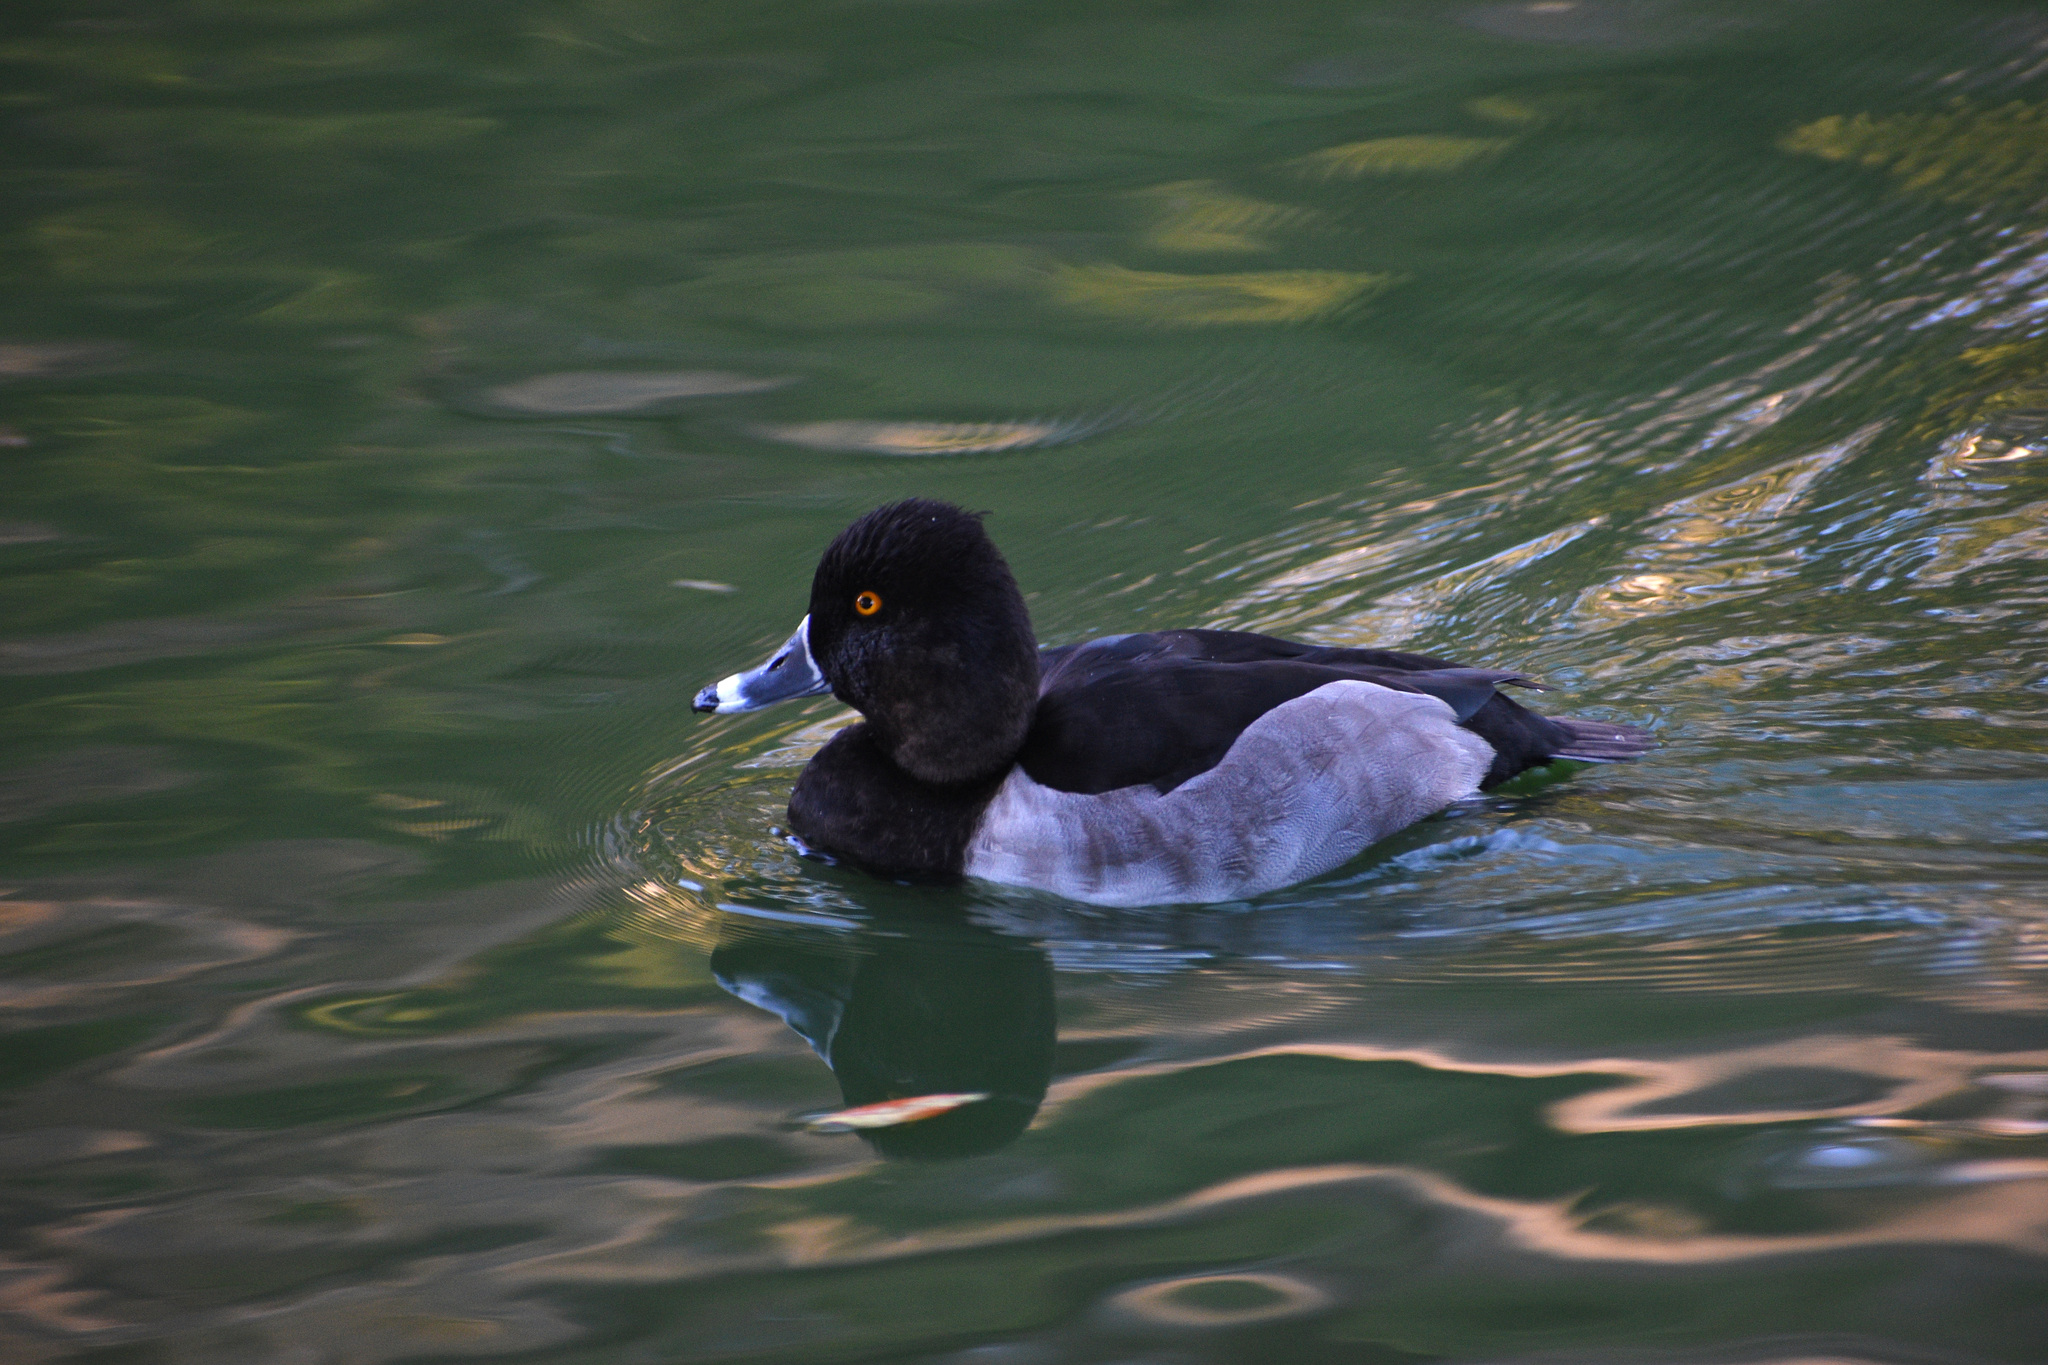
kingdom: Animalia
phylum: Chordata
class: Aves
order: Anseriformes
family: Anatidae
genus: Aythya
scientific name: Aythya collaris
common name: Ring-necked duck
